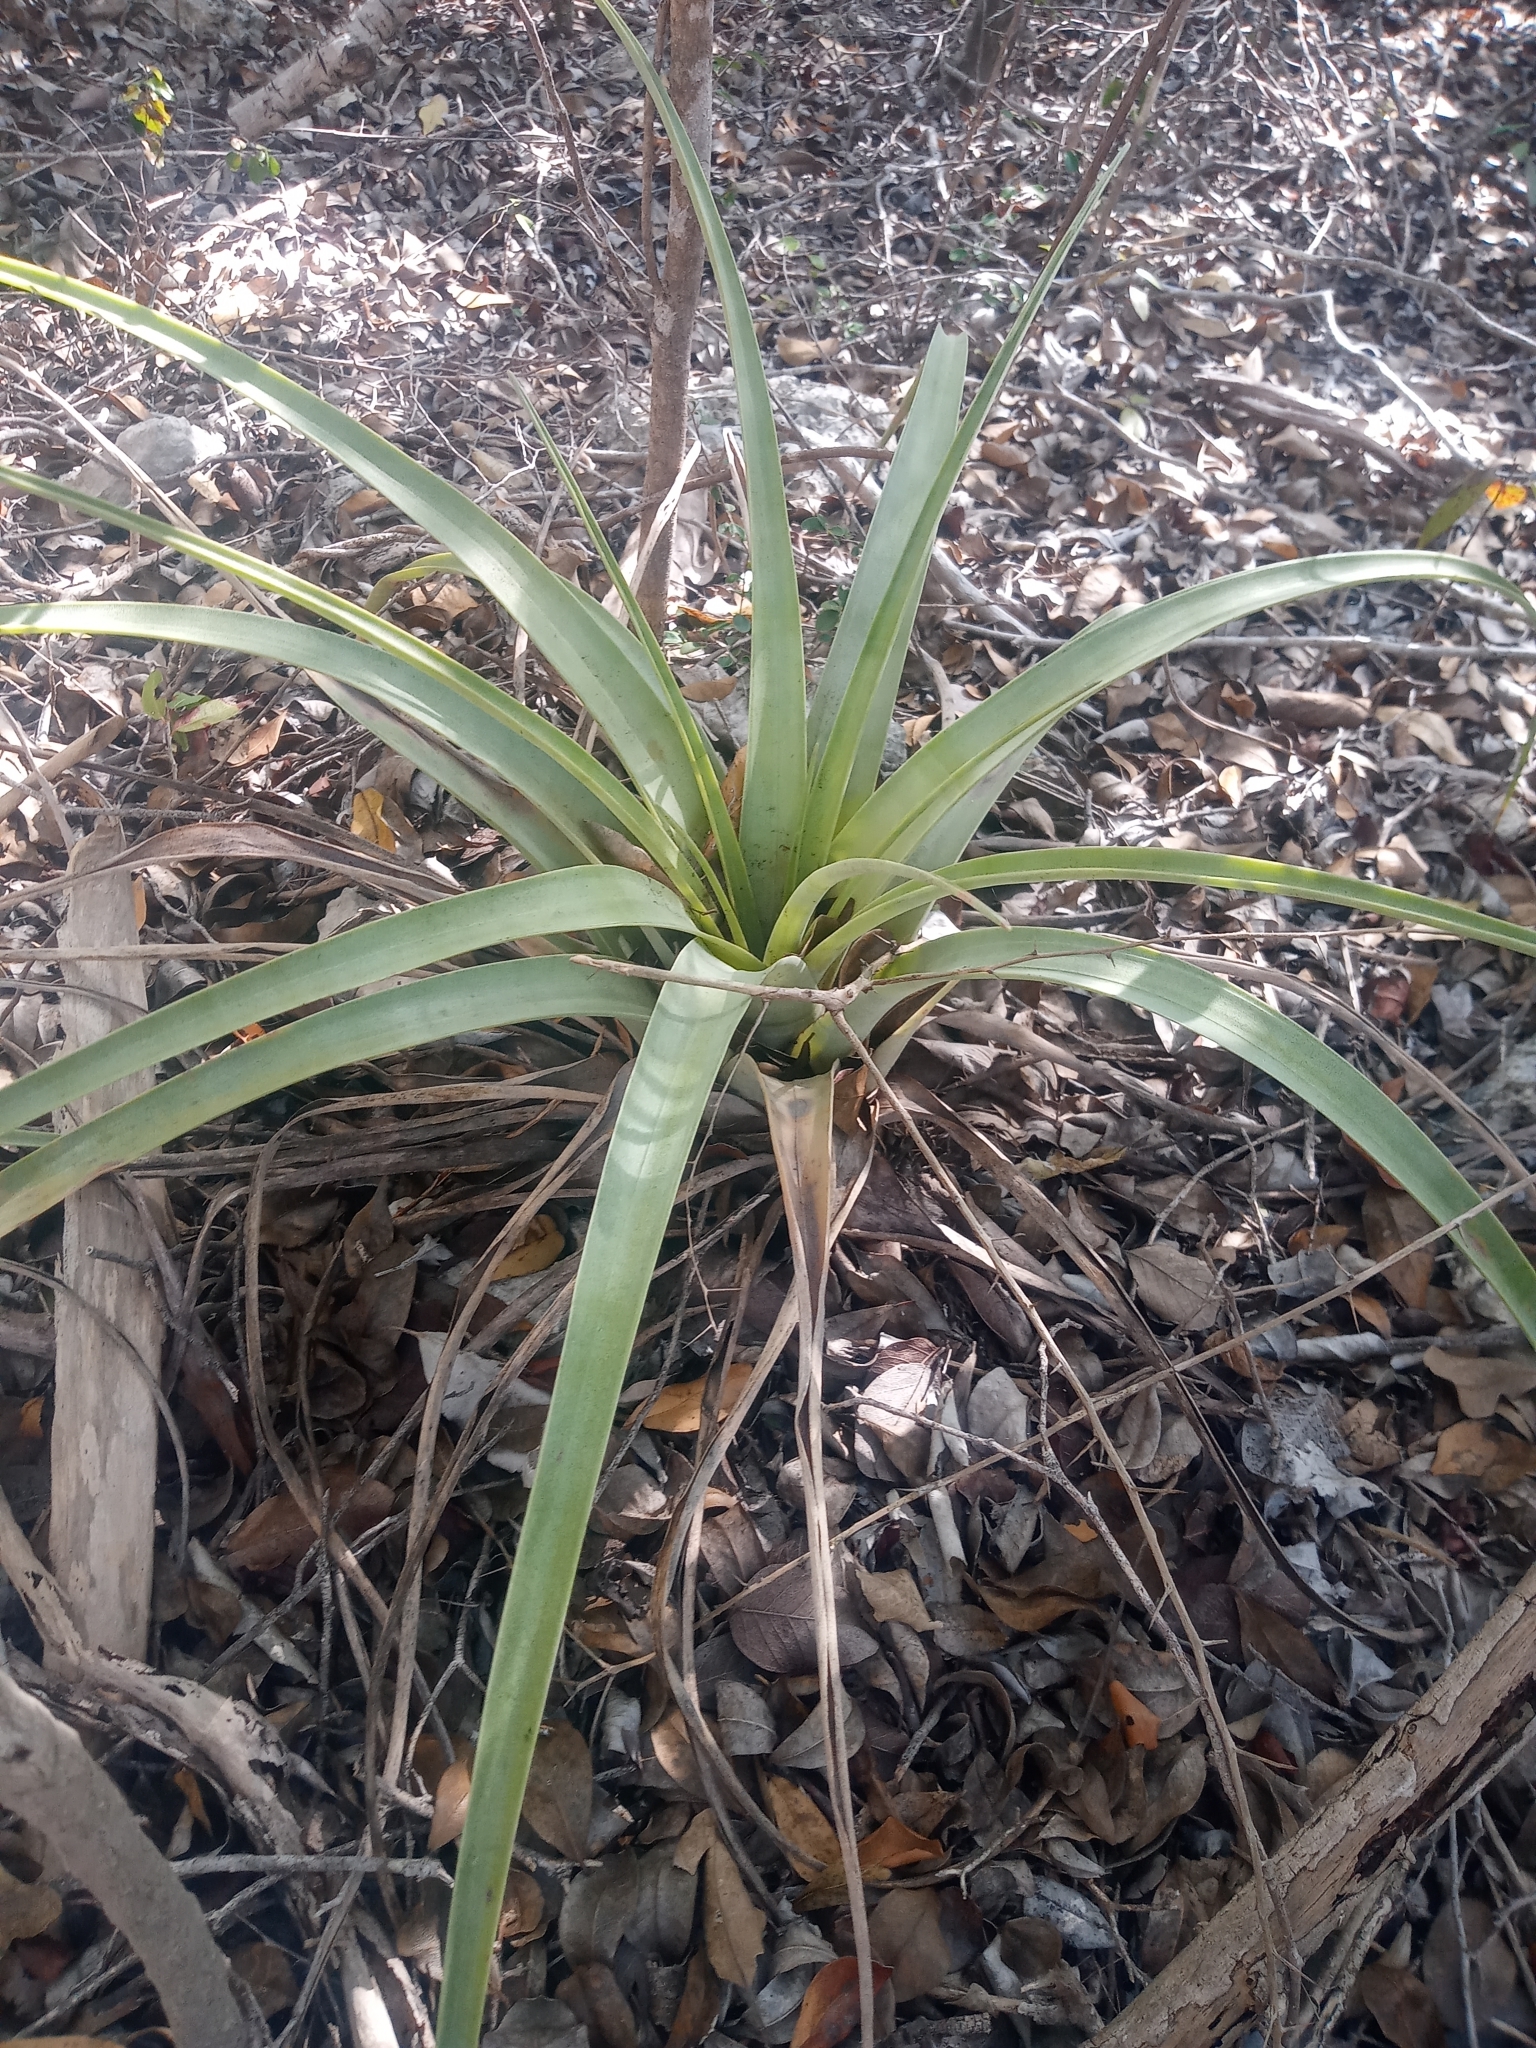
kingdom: Plantae
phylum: Tracheophyta
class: Liliopsida
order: Poales
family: Bromeliaceae
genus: Tillandsia
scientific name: Tillandsia utriculata
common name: Wild pine
